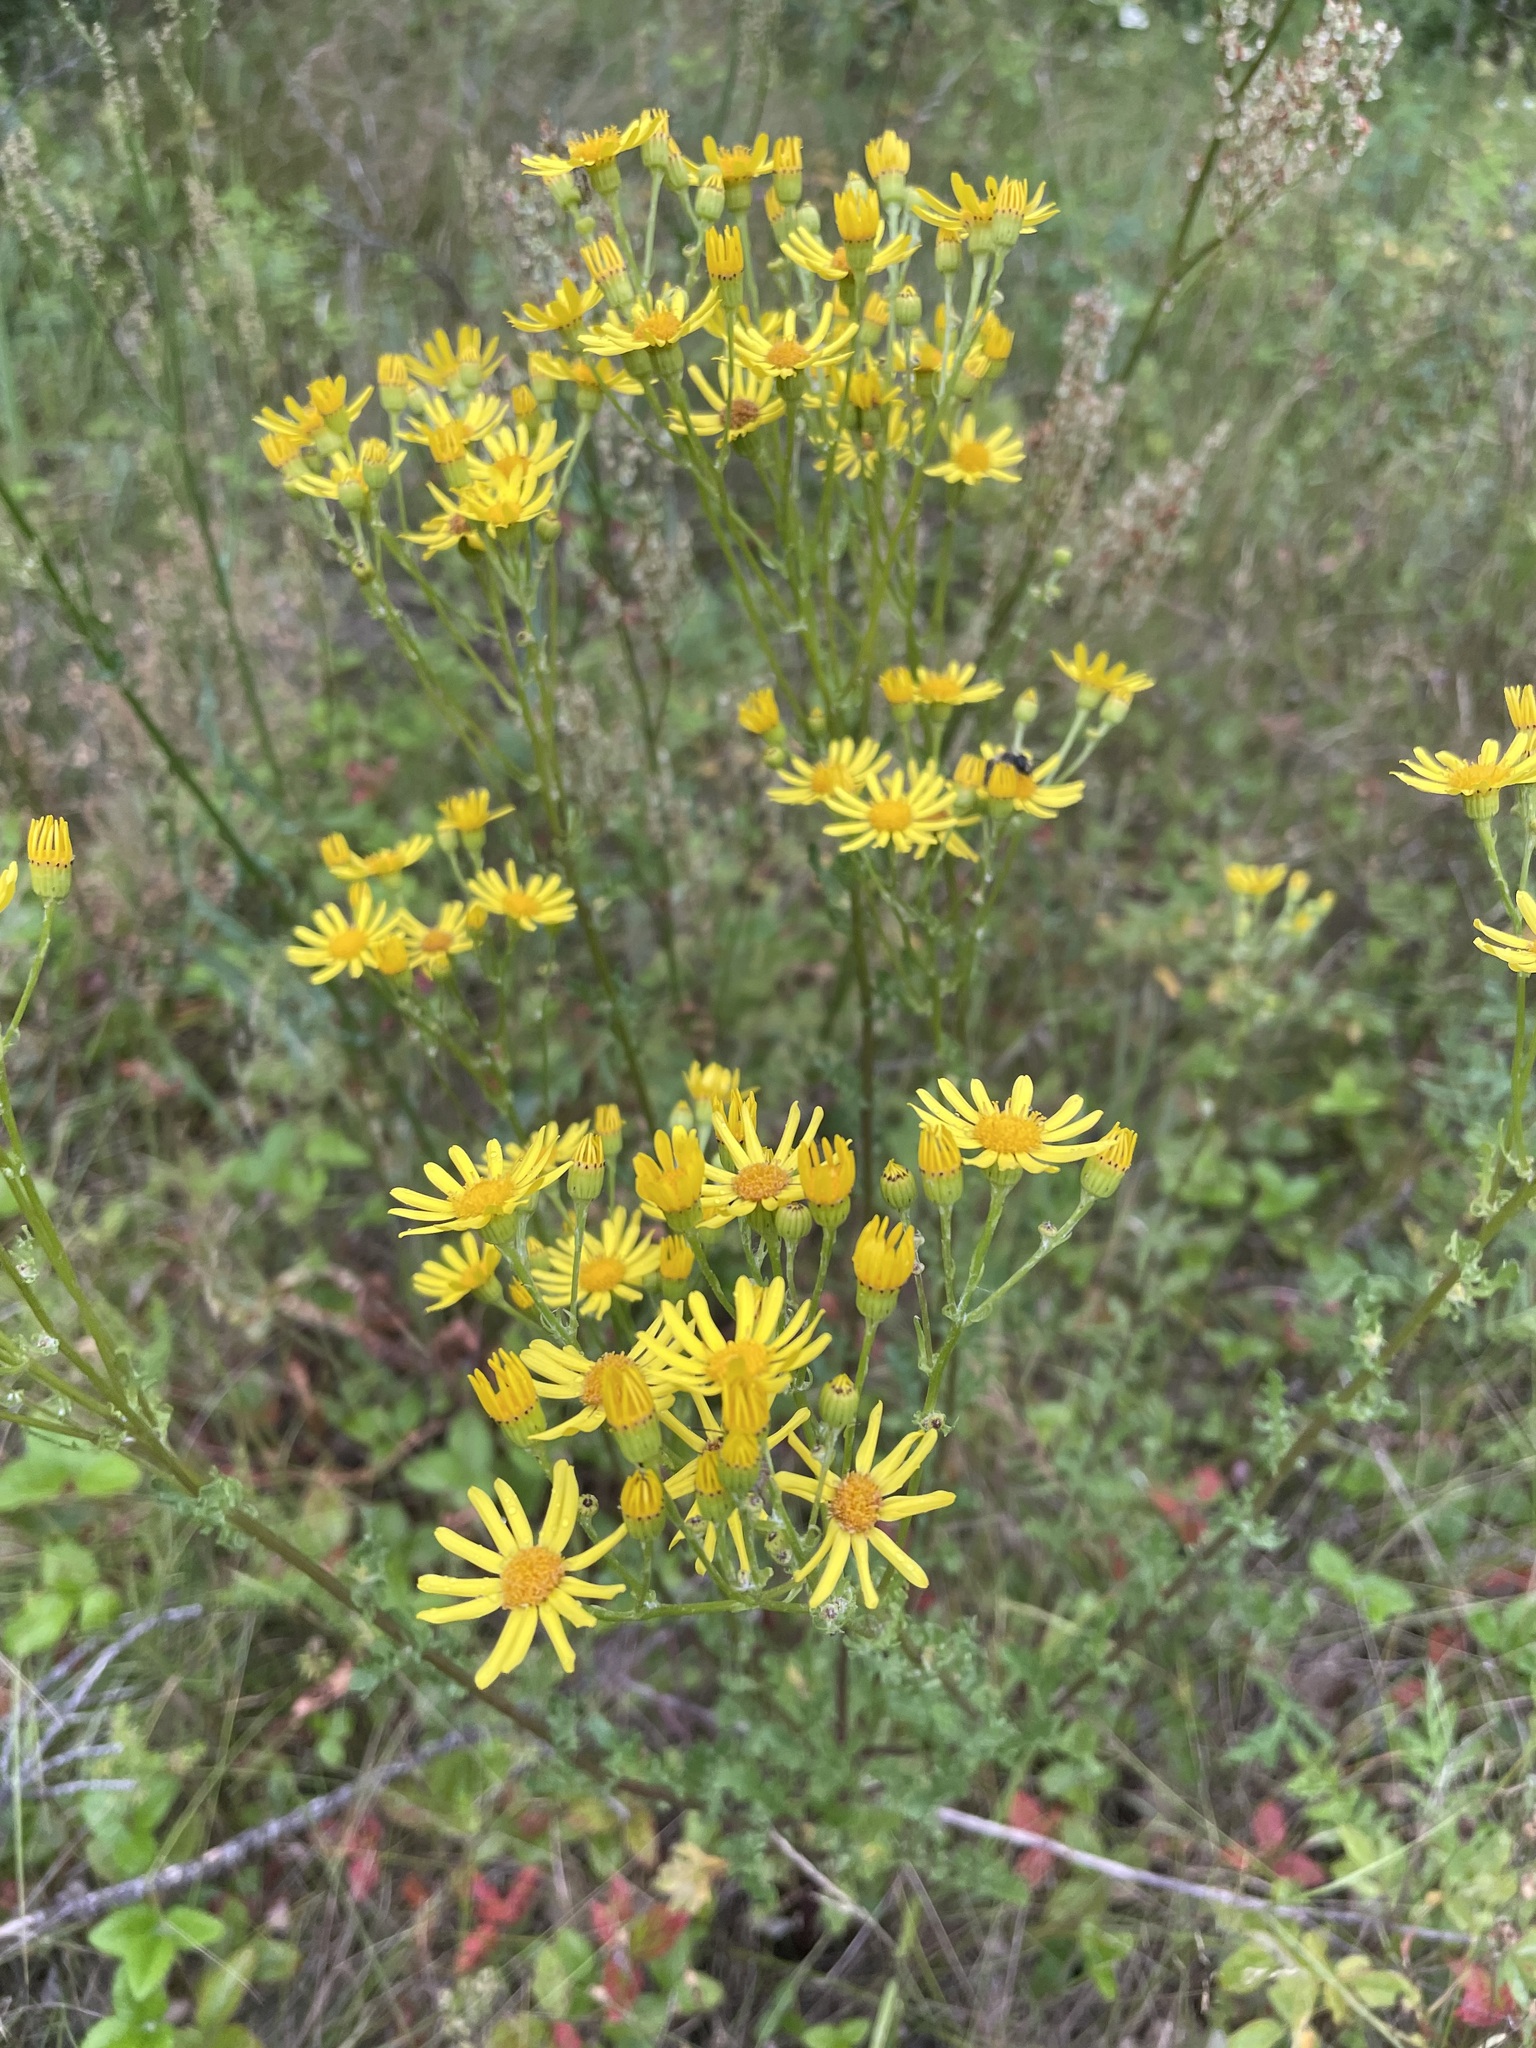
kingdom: Plantae
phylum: Tracheophyta
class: Magnoliopsida
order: Asterales
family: Asteraceae
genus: Jacobaea
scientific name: Jacobaea vulgaris
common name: Stinking willie
